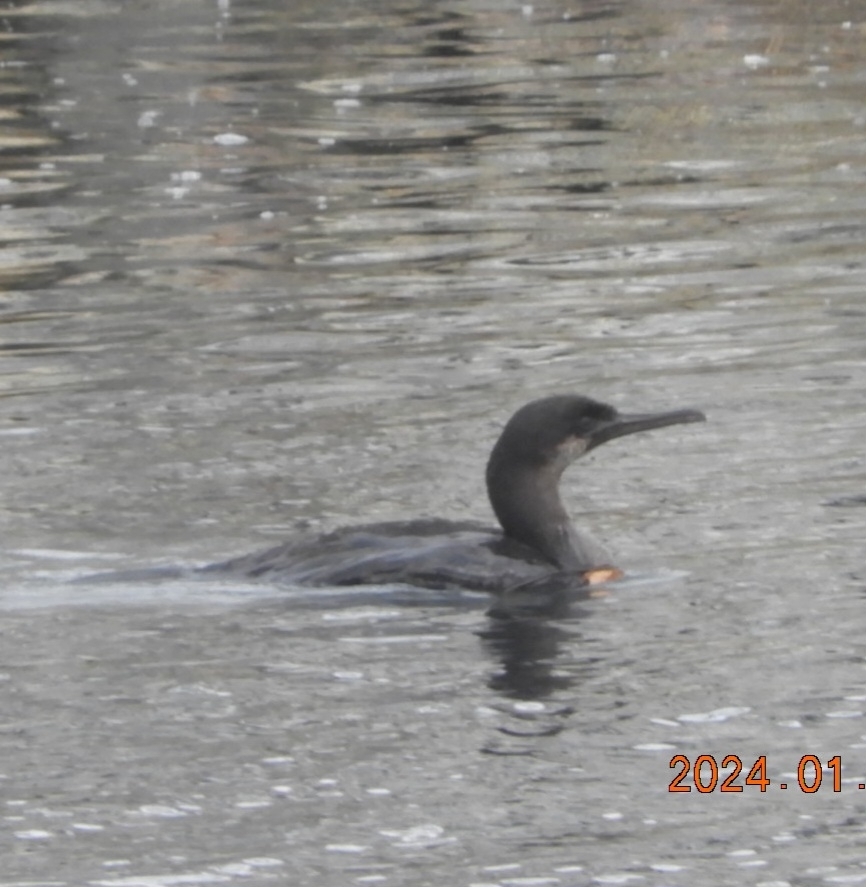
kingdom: Animalia
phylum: Chordata
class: Aves
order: Suliformes
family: Phalacrocoracidae
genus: Urile
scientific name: Urile penicillatus
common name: Brandt's cormorant
